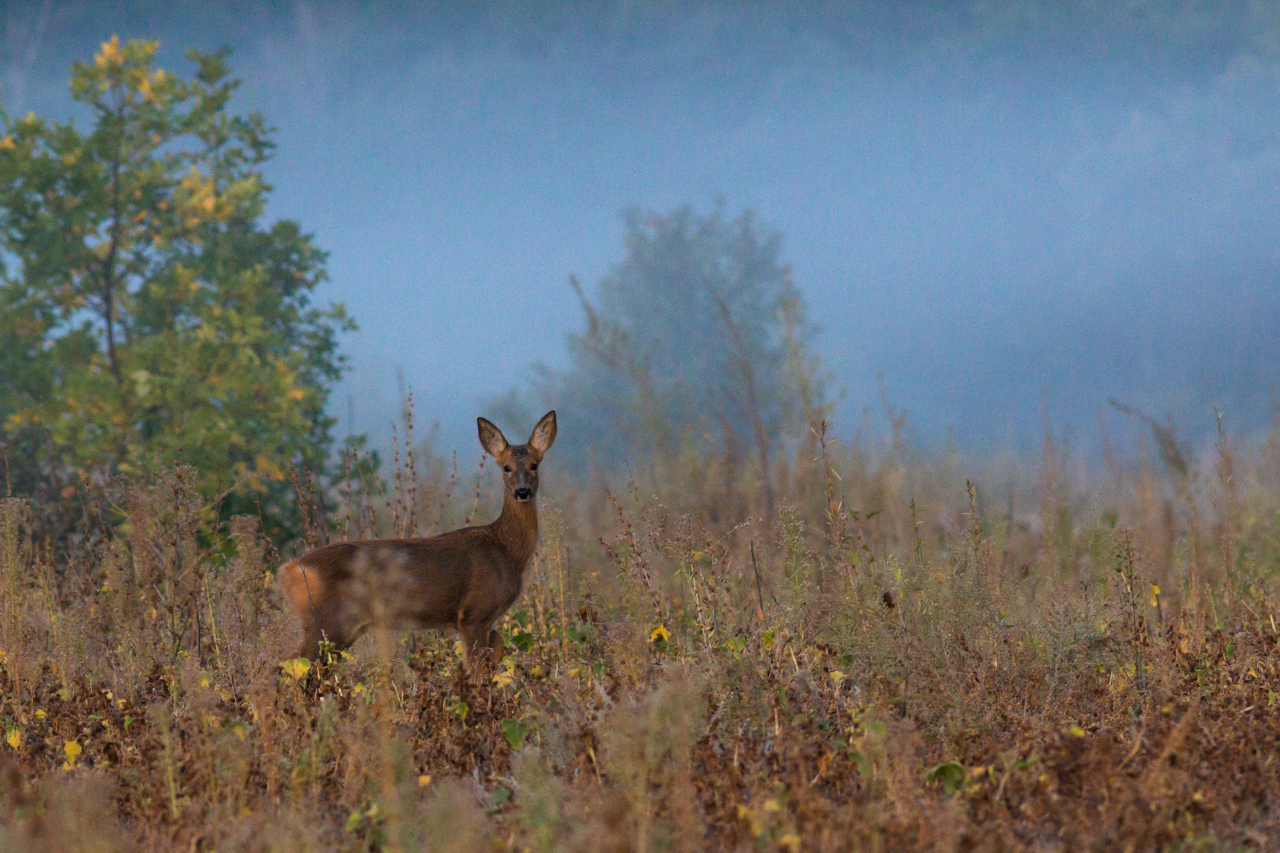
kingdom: Animalia
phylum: Chordata
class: Mammalia
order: Artiodactyla
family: Cervidae
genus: Capreolus
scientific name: Capreolus pygargus
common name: Siberian roe
